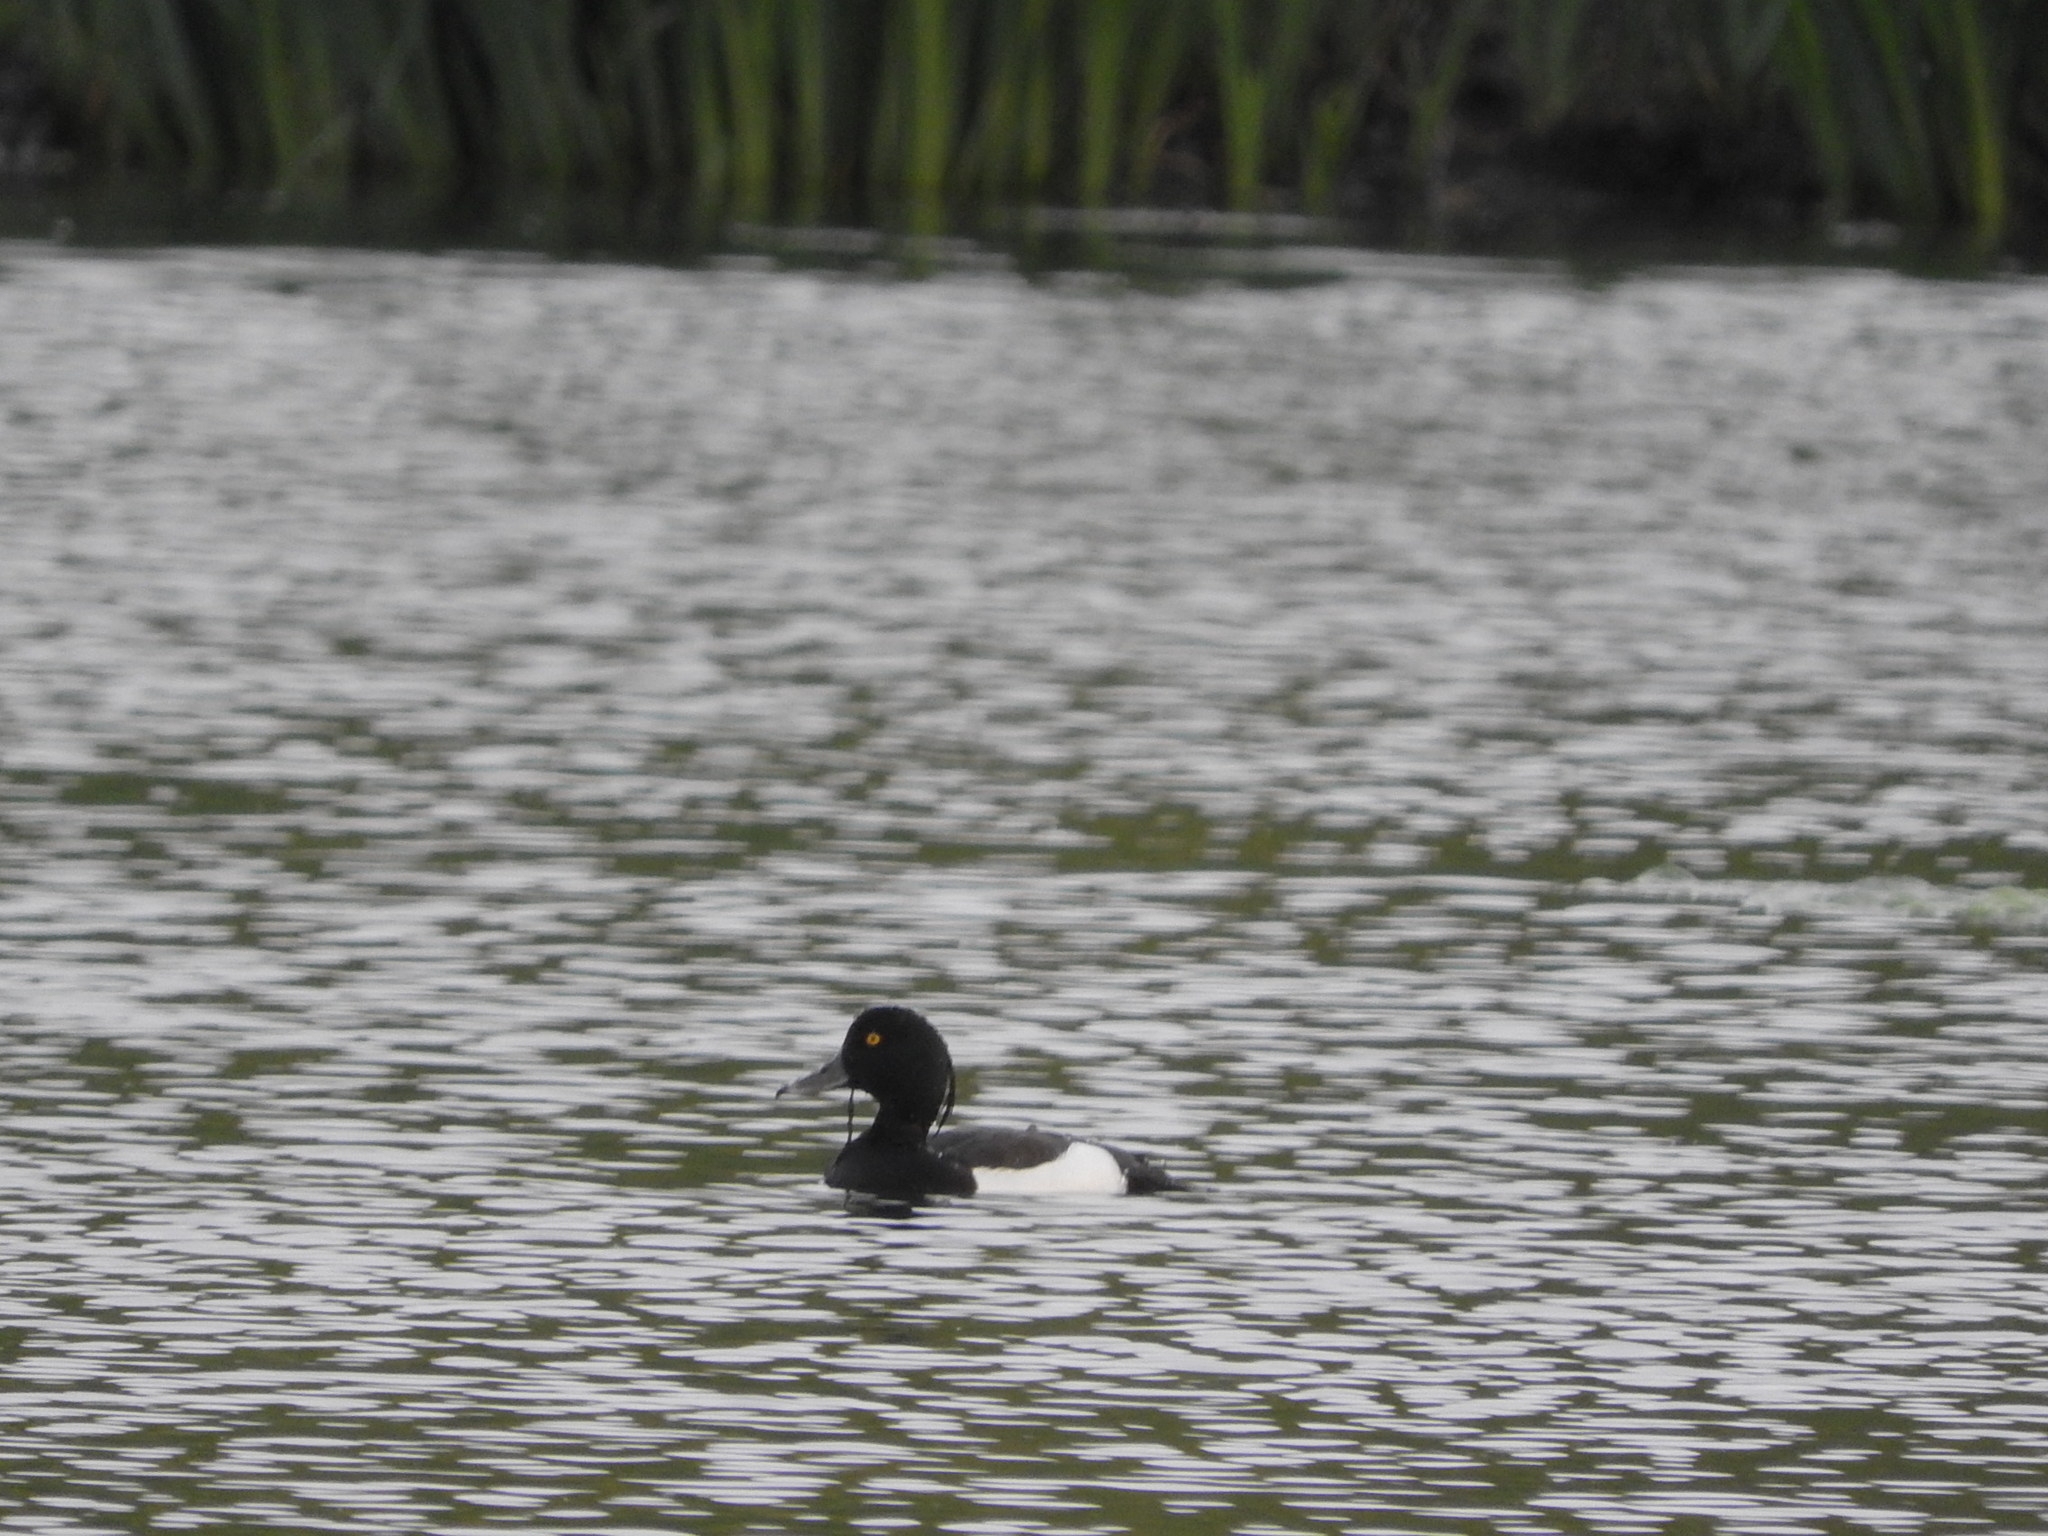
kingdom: Animalia
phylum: Chordata
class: Aves
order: Anseriformes
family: Anatidae
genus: Aythya
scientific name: Aythya fuligula
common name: Tufted duck
